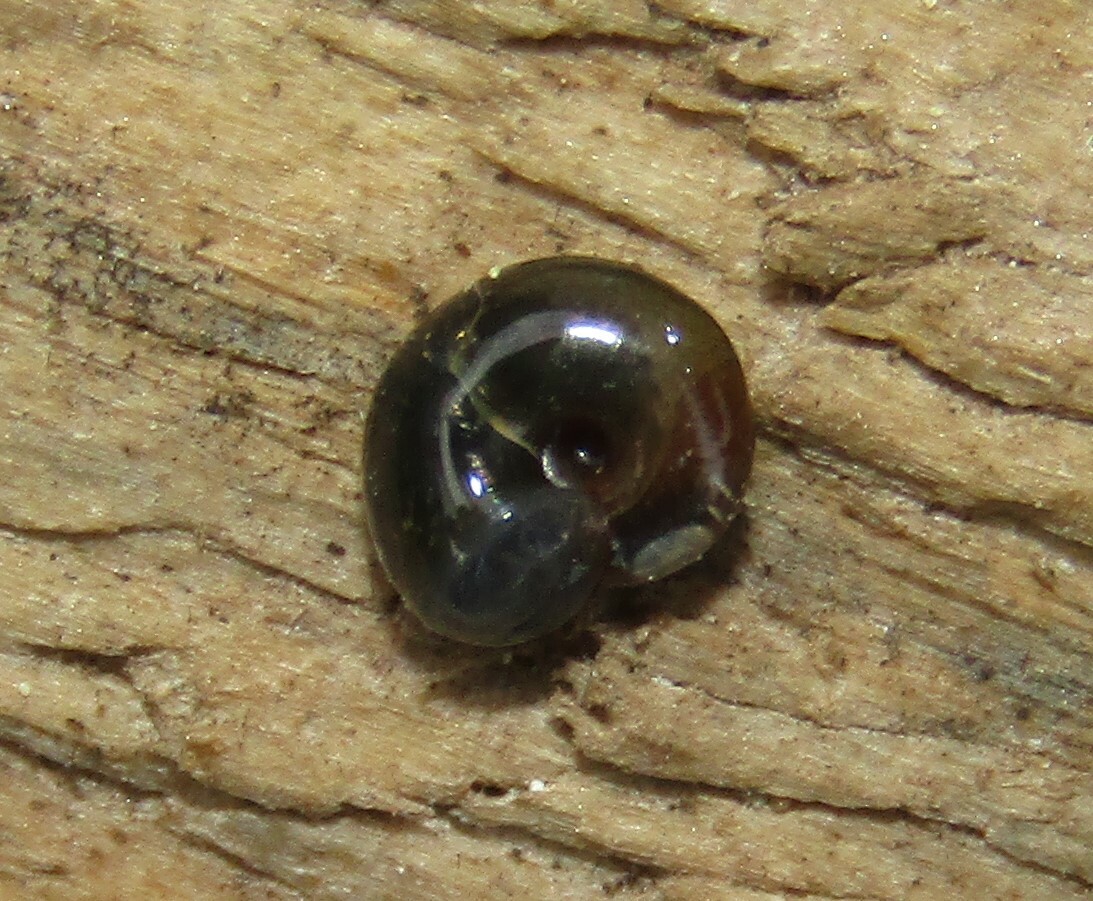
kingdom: Animalia
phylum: Mollusca
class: Gastropoda
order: Stylommatophora
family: Gastrodontidae
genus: Zonitoides
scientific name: Zonitoides nitidus
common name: Shiny glass snail
